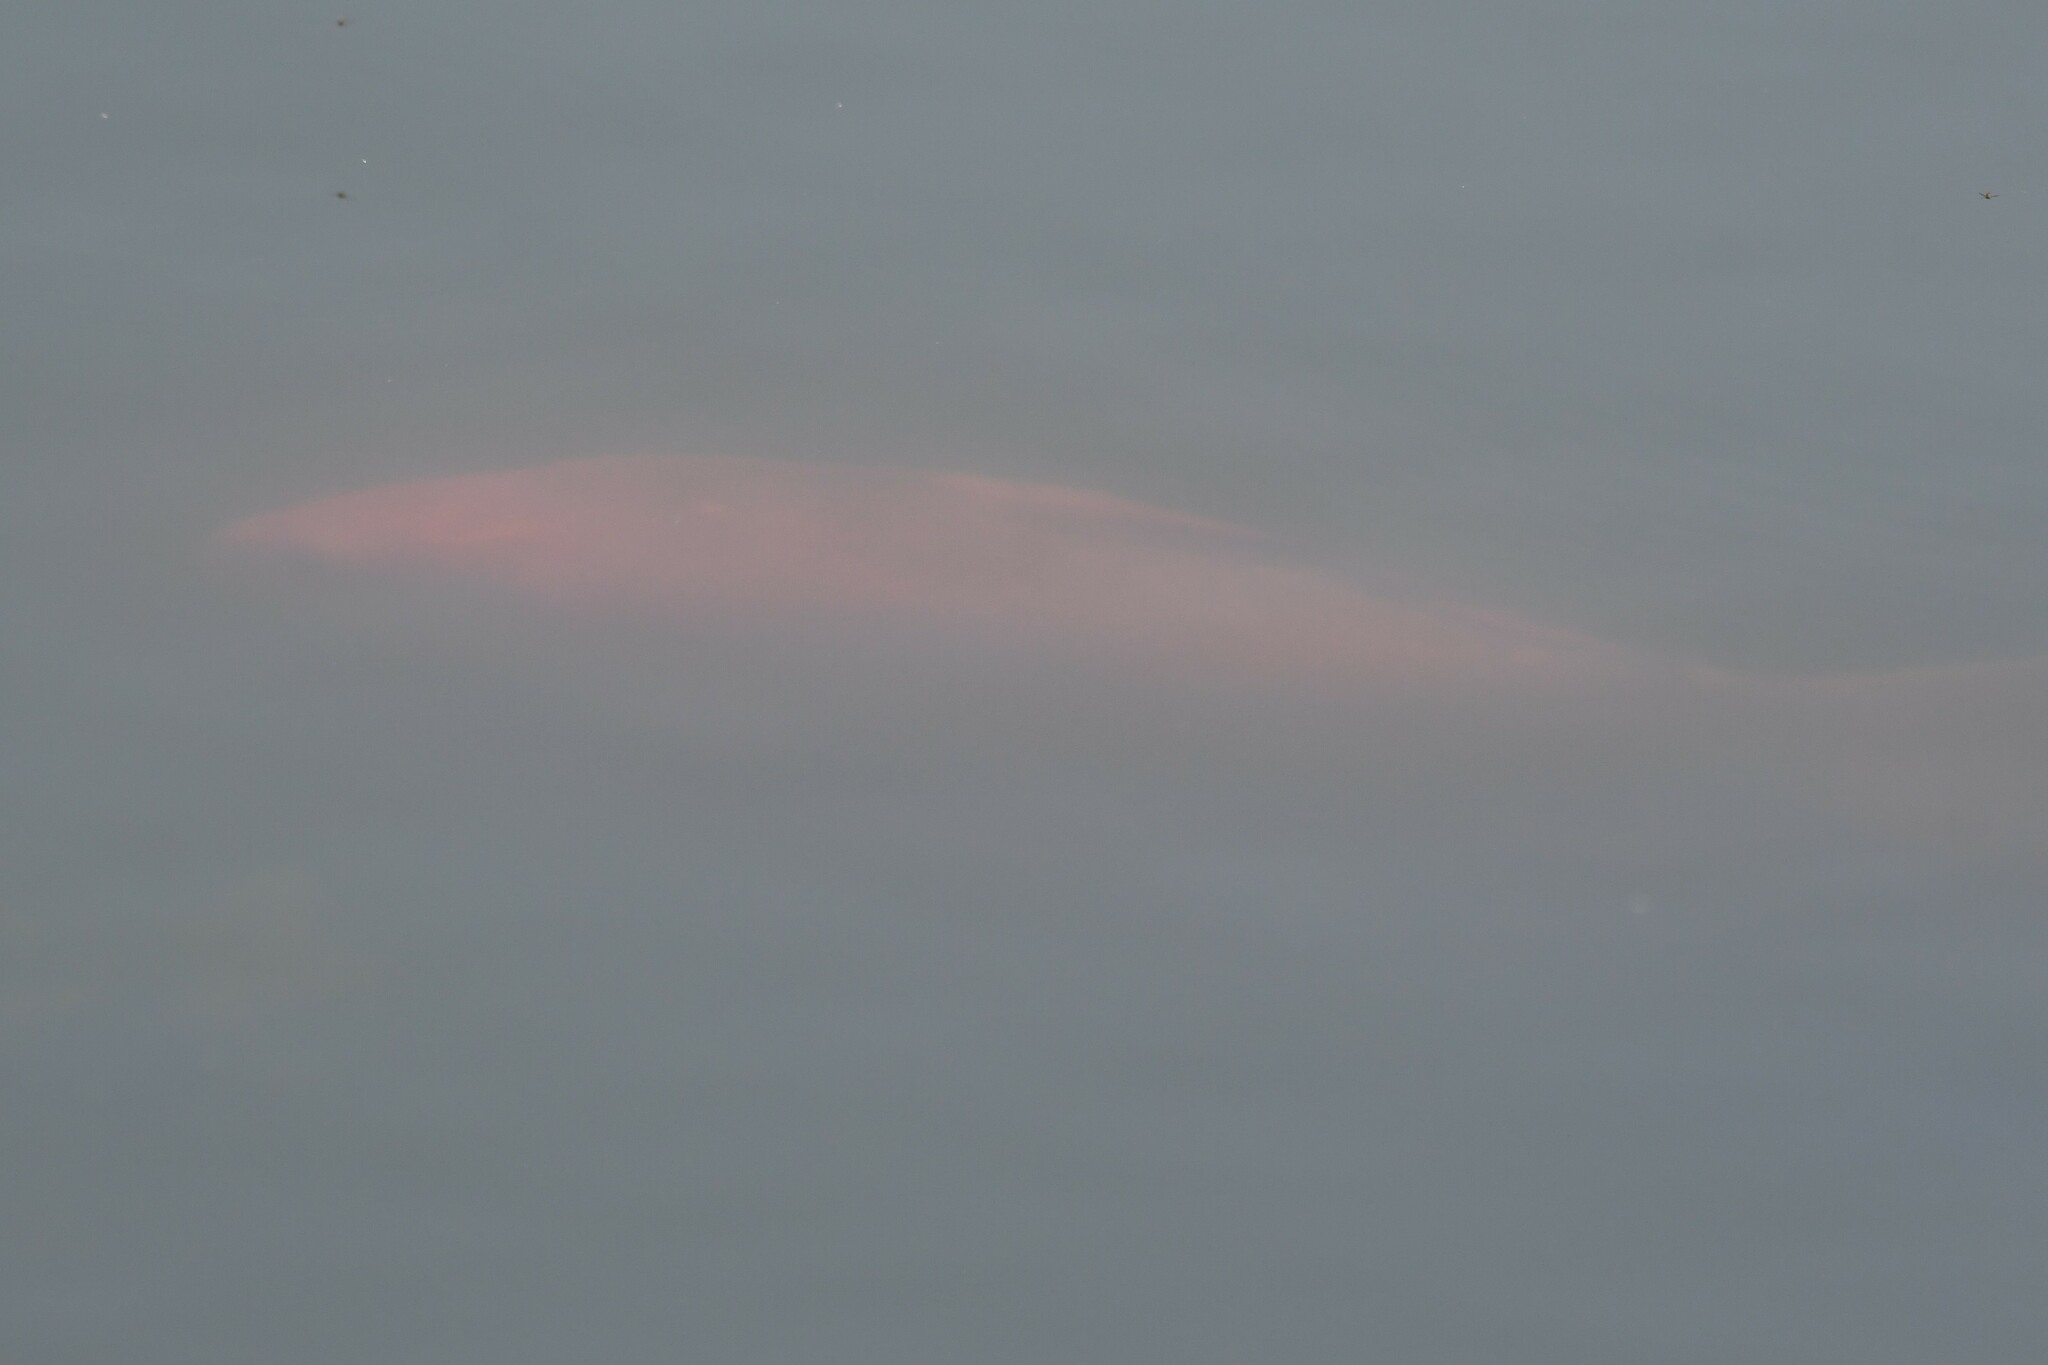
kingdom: Animalia
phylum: Chordata
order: Cypriniformes
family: Cyprinidae
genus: Carassius
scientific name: Carassius auratus
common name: Goldfish
